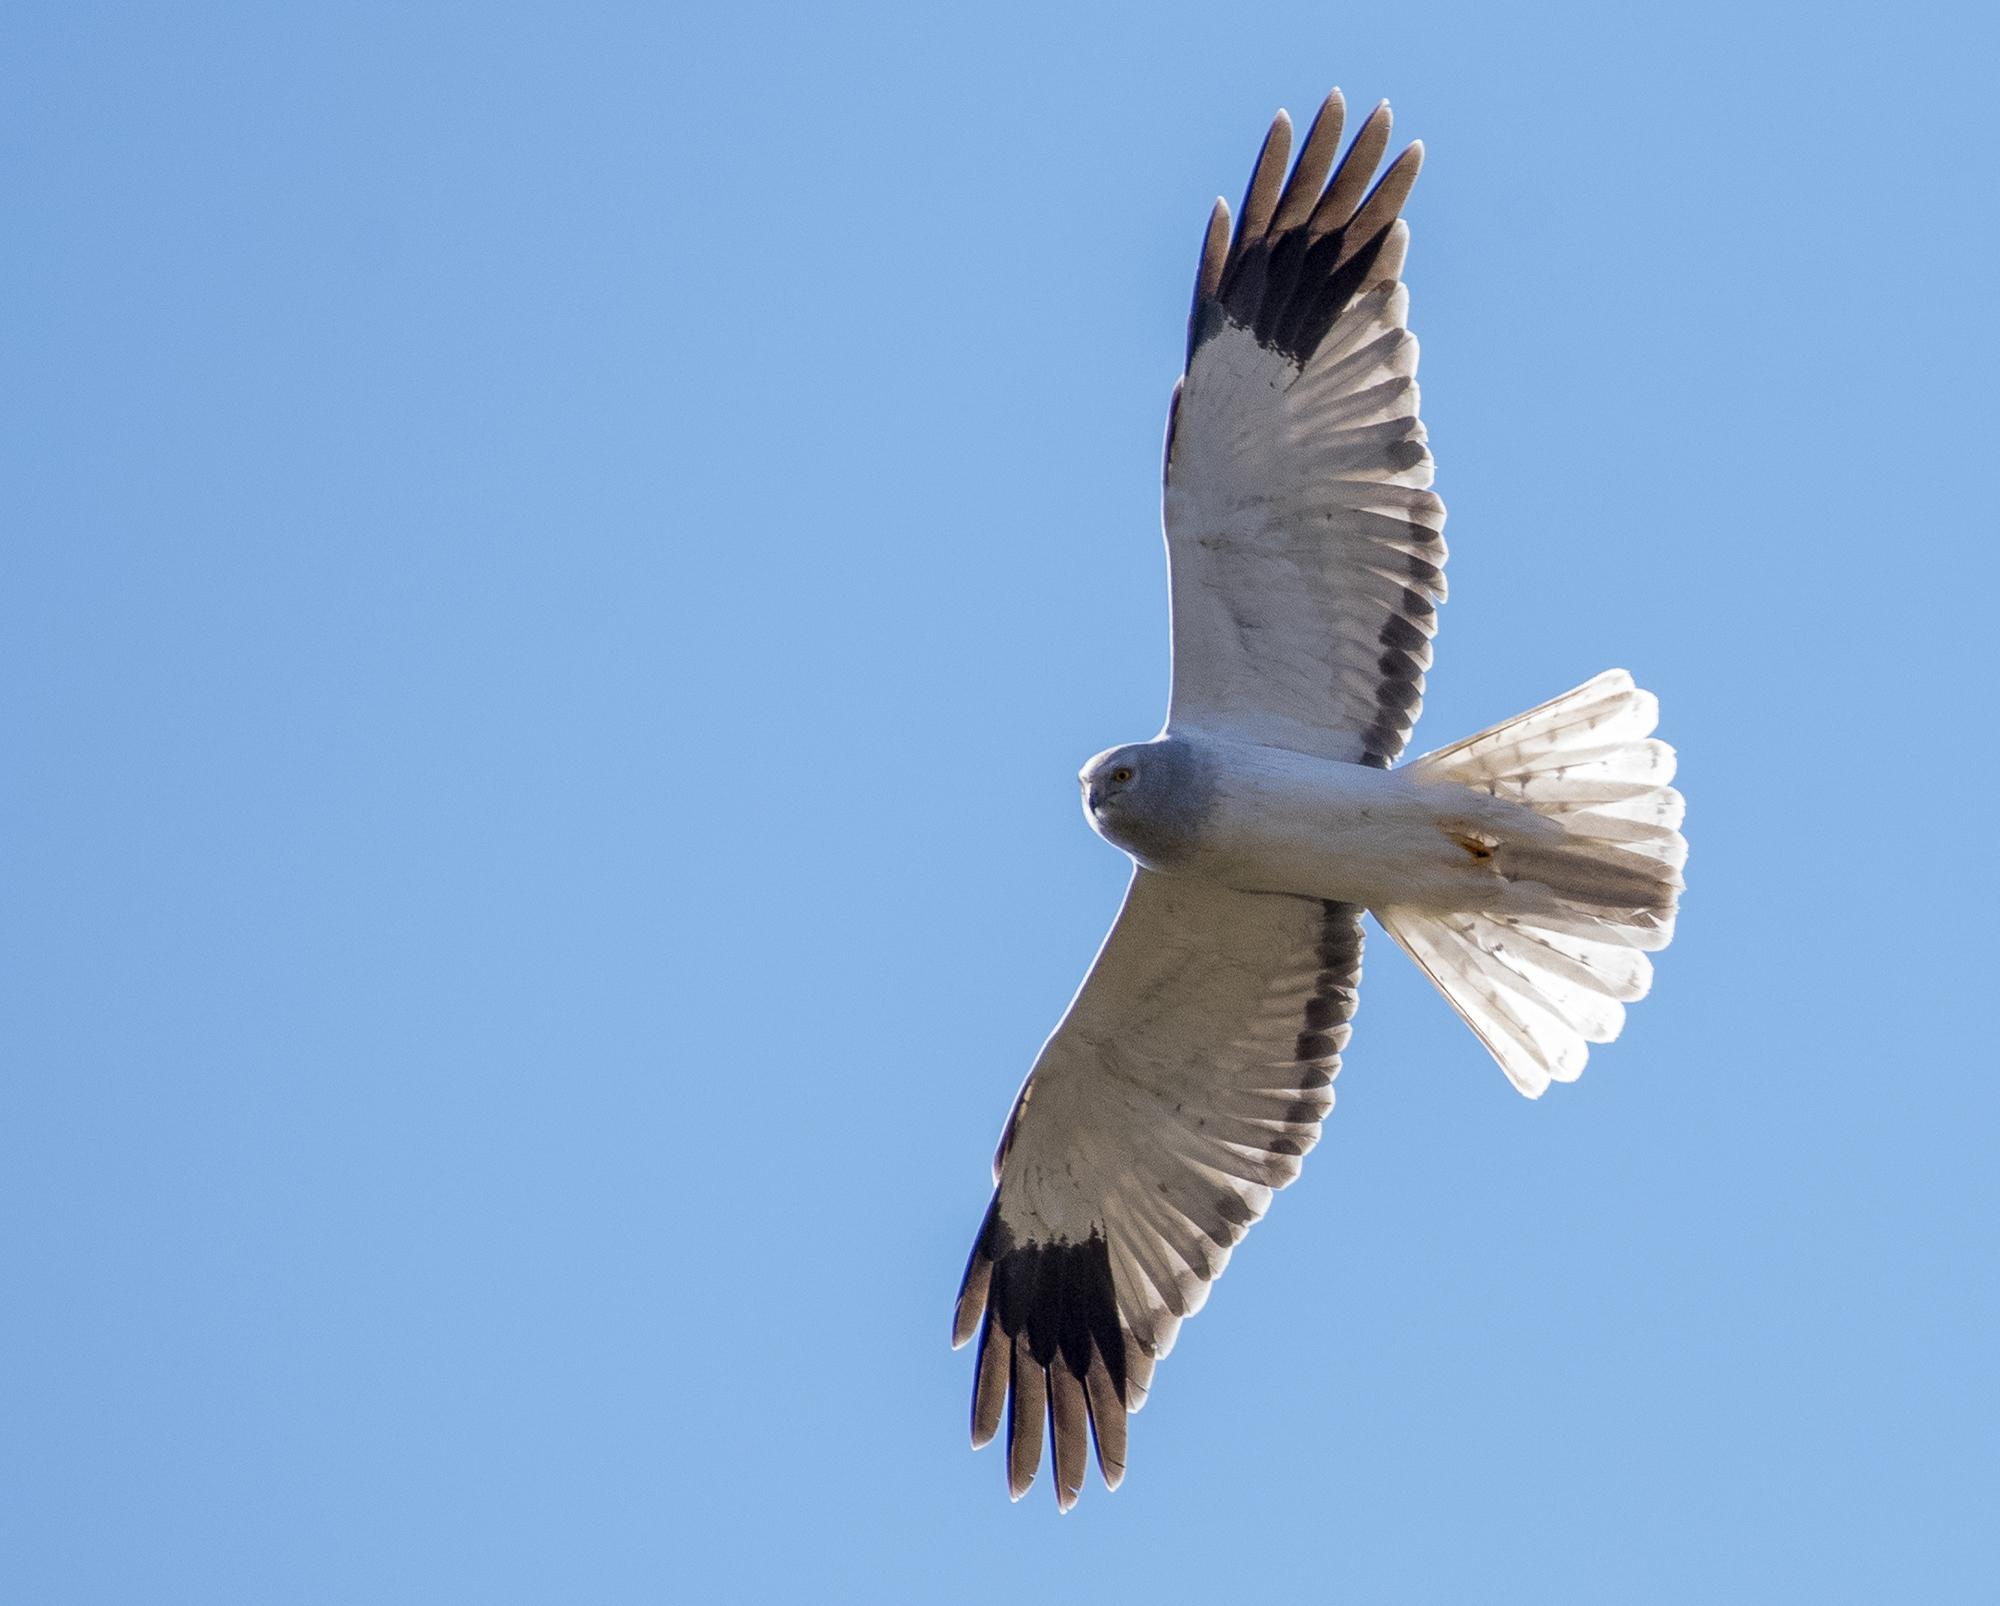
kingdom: Animalia
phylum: Chordata
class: Aves
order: Accipitriformes
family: Accipitridae
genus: Circus
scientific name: Circus cyaneus
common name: Hen harrier
